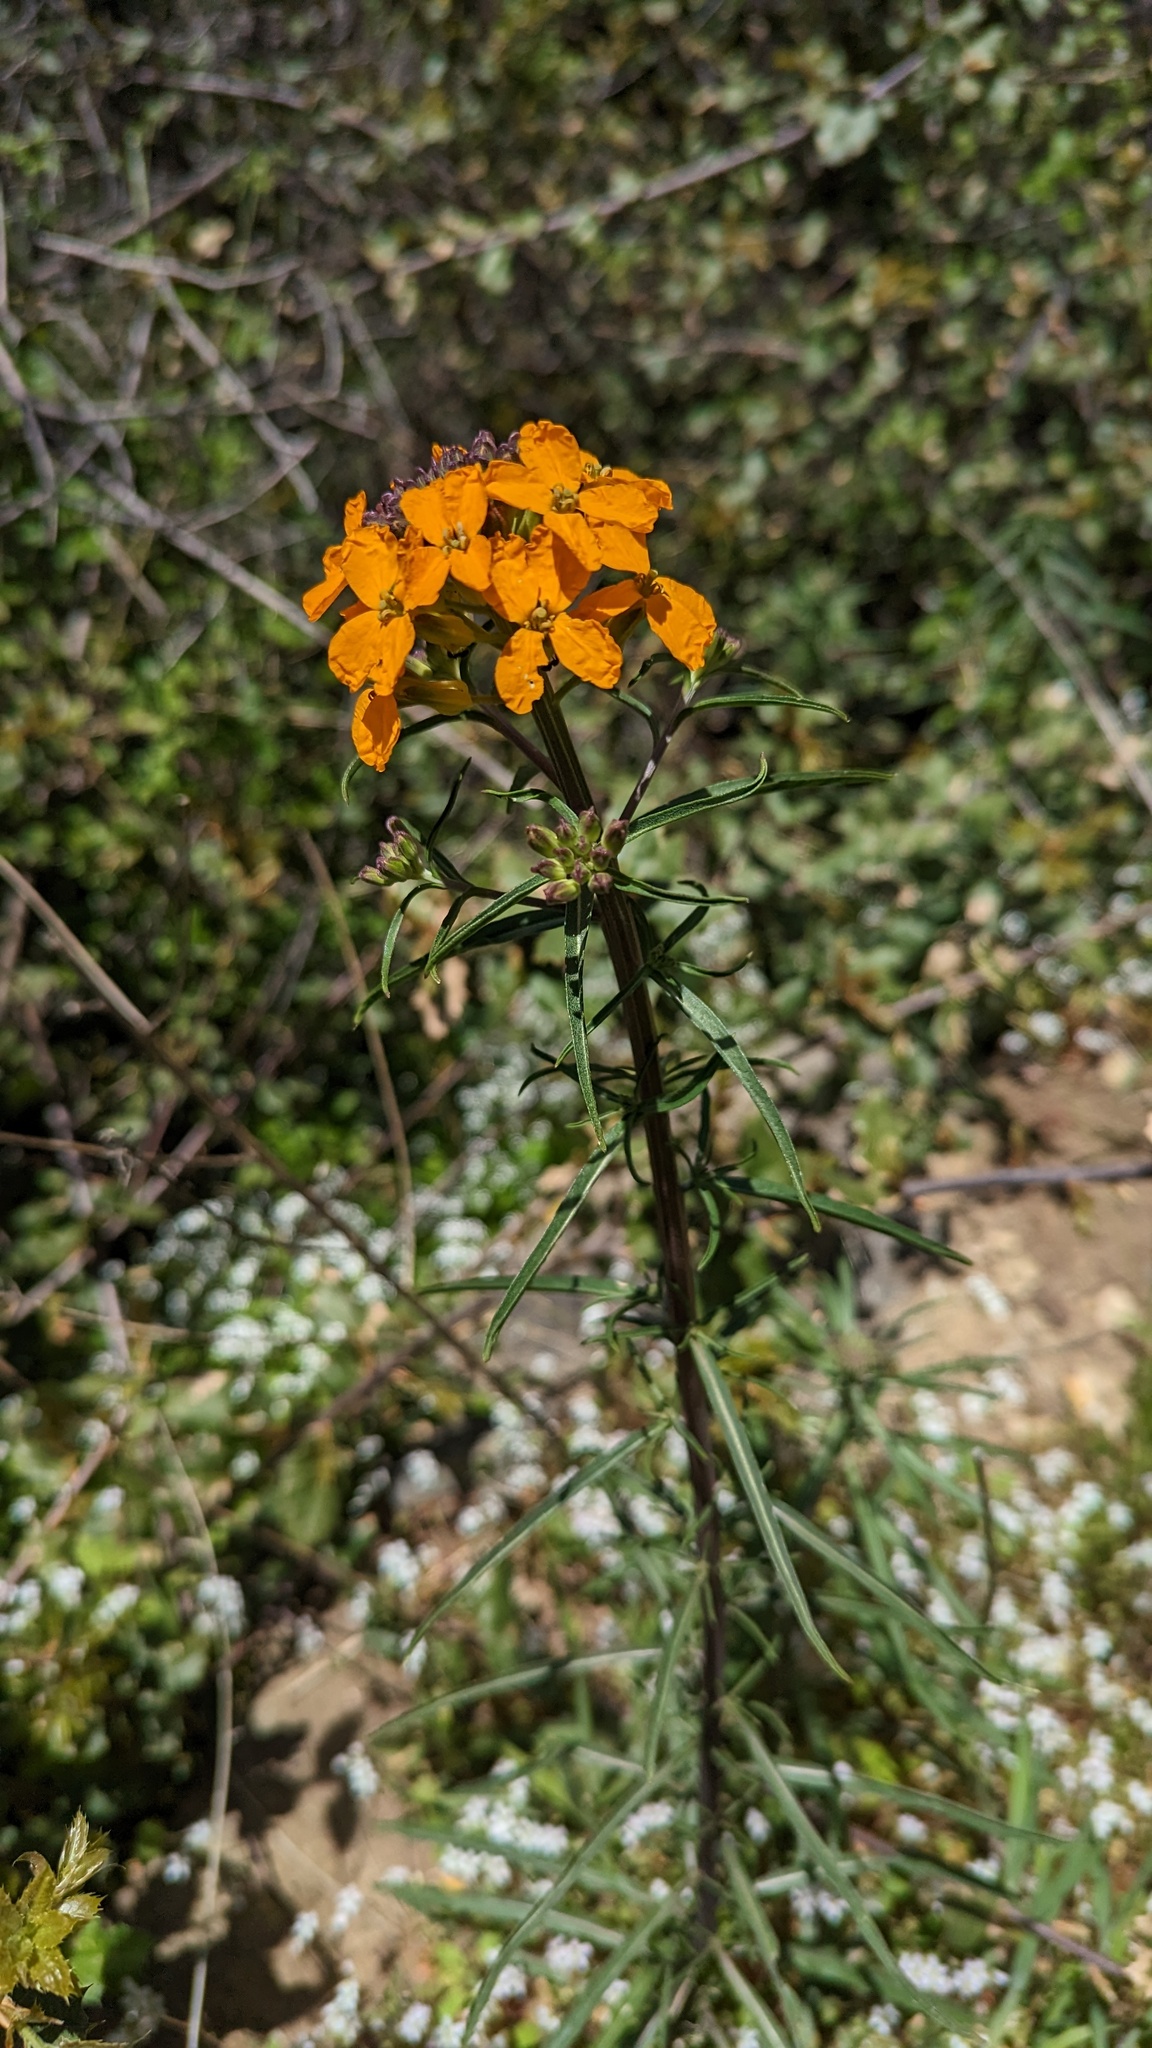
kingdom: Plantae
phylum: Tracheophyta
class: Magnoliopsida
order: Brassicales
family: Brassicaceae
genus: Erysimum
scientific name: Erysimum capitatum
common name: Western wallflower
